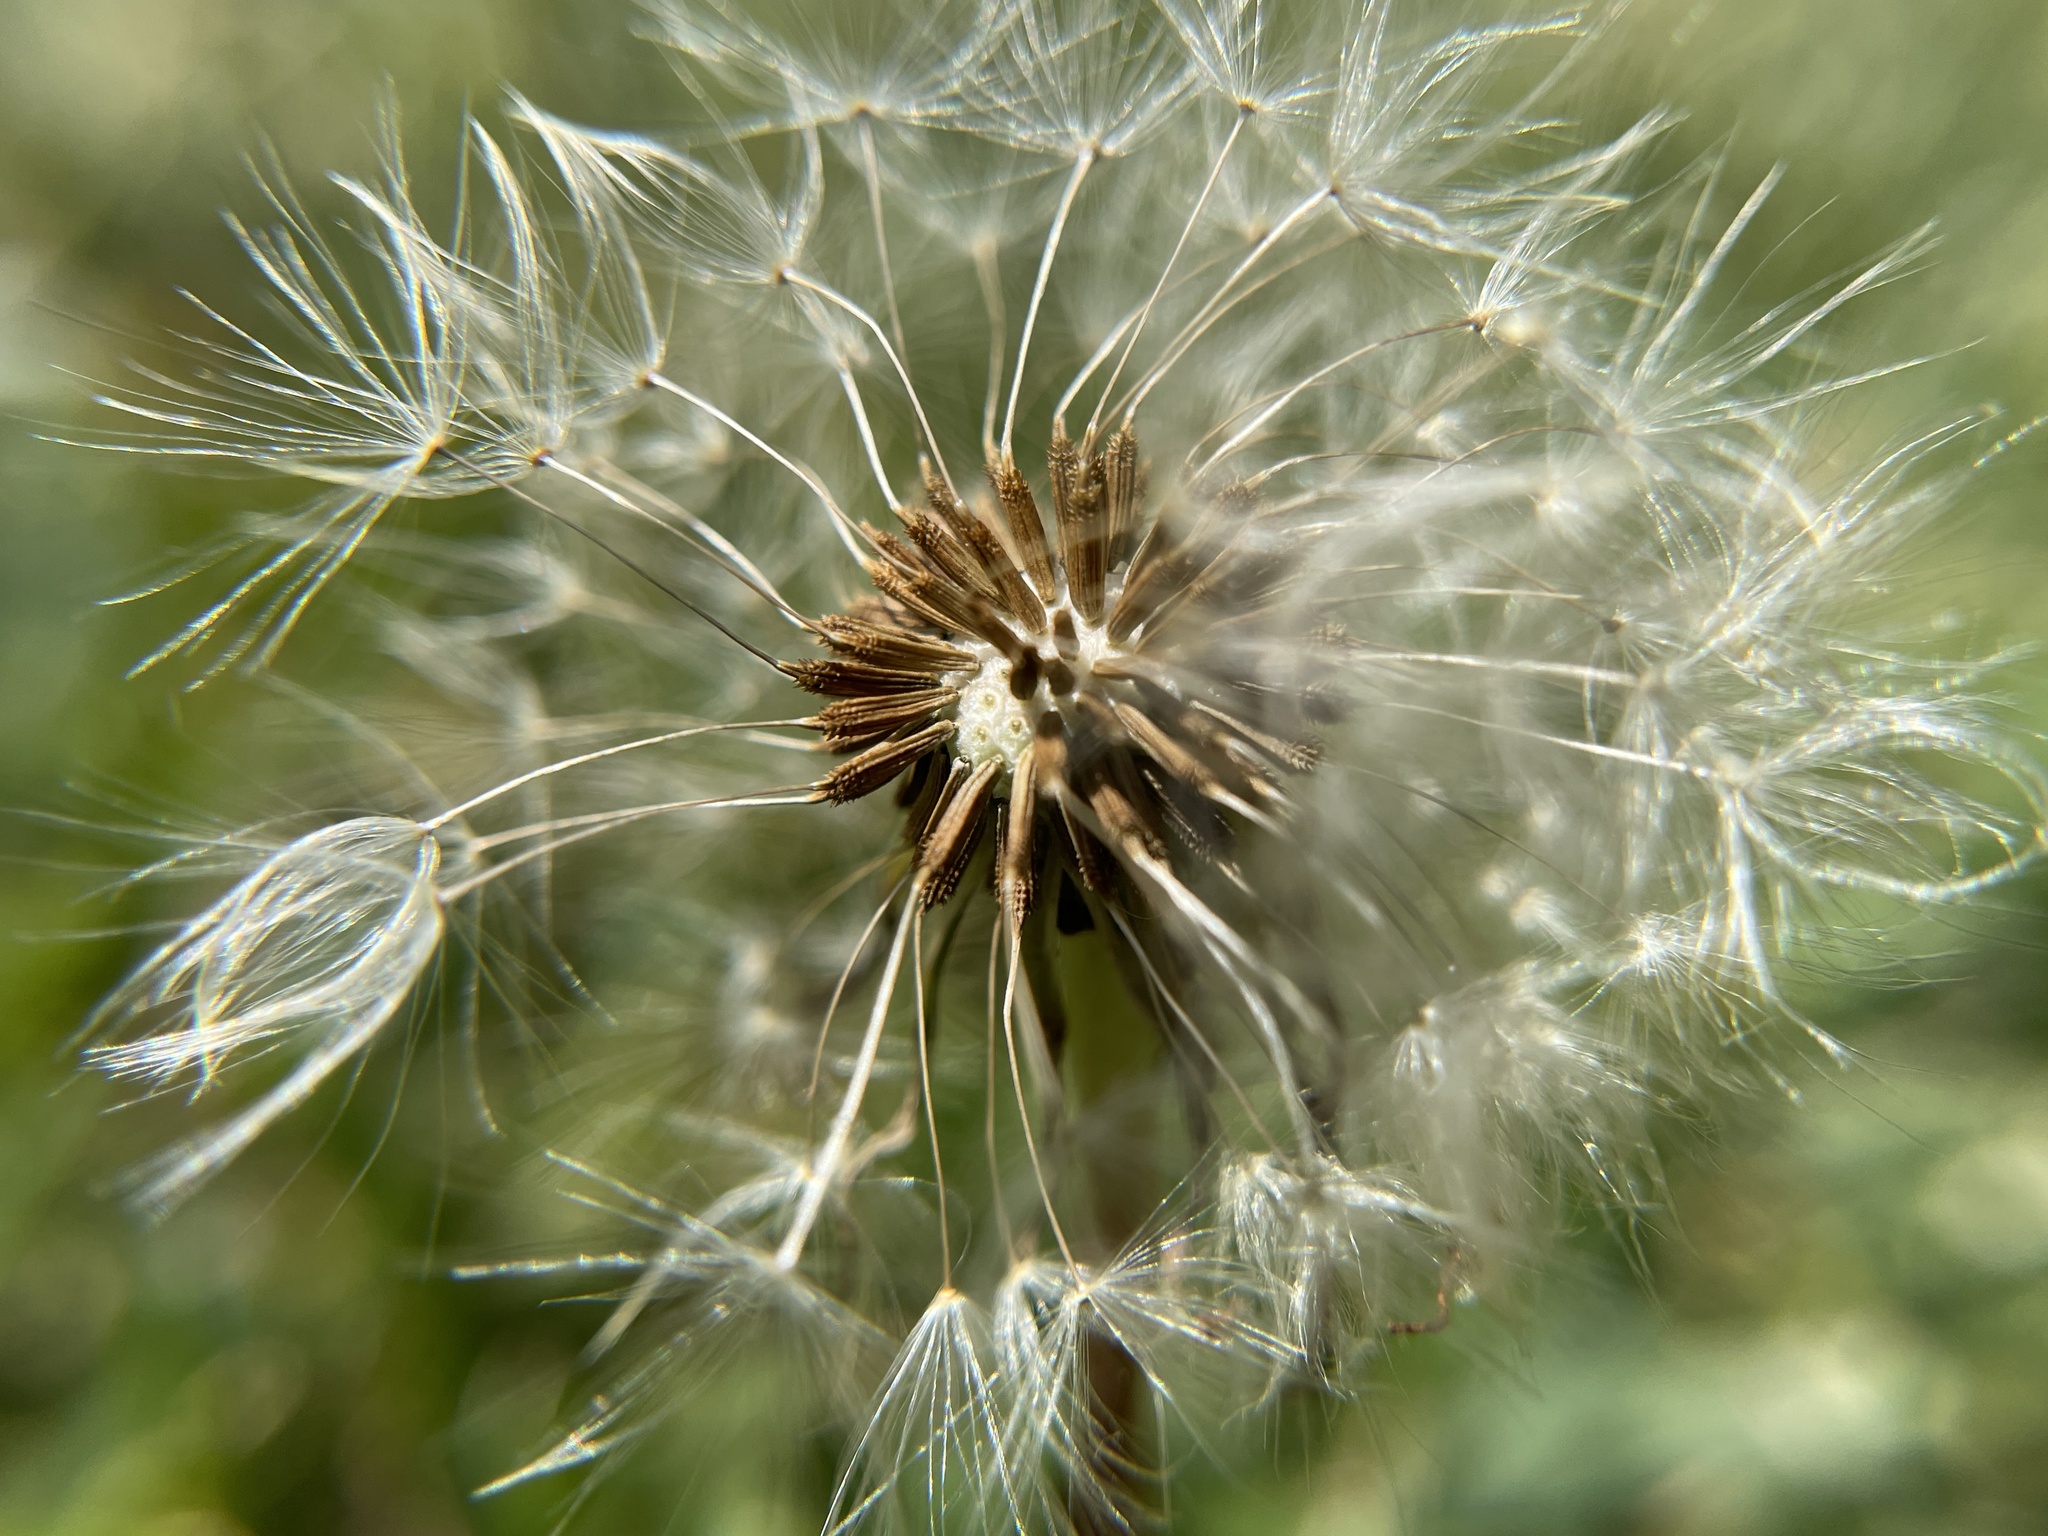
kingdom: Plantae
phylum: Tracheophyta
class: Magnoliopsida
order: Asterales
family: Asteraceae
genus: Taraxacum
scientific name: Taraxacum
